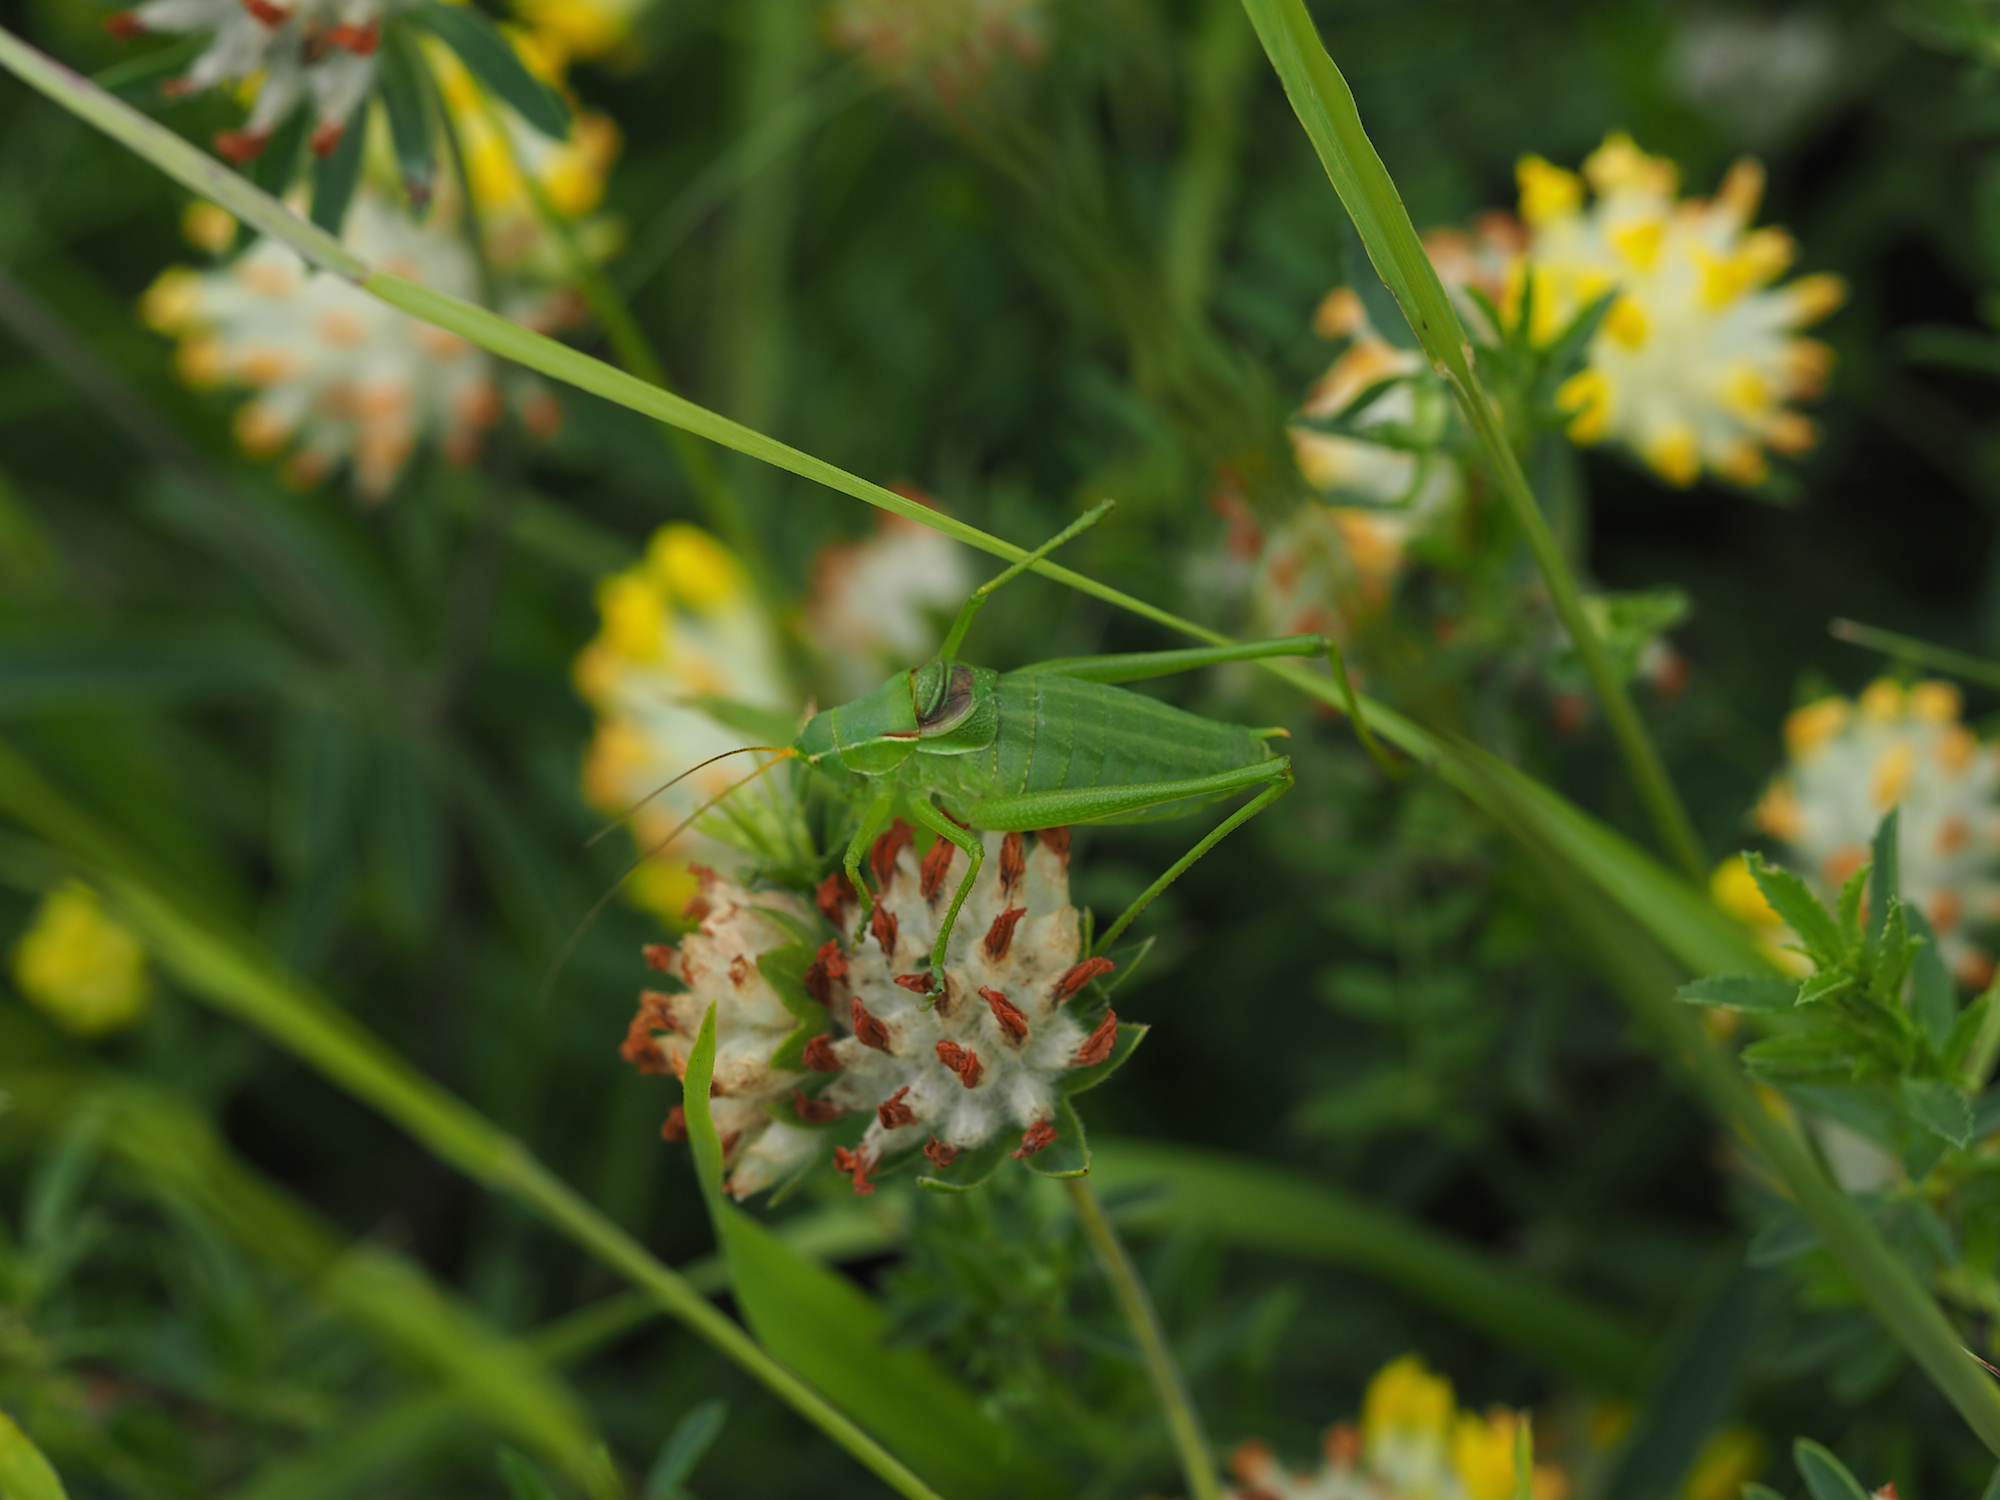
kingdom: Plantae
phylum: Tracheophyta
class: Magnoliopsida
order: Fabales
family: Fabaceae
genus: Anthyllis
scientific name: Anthyllis vulneraria
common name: Kidney vetch
